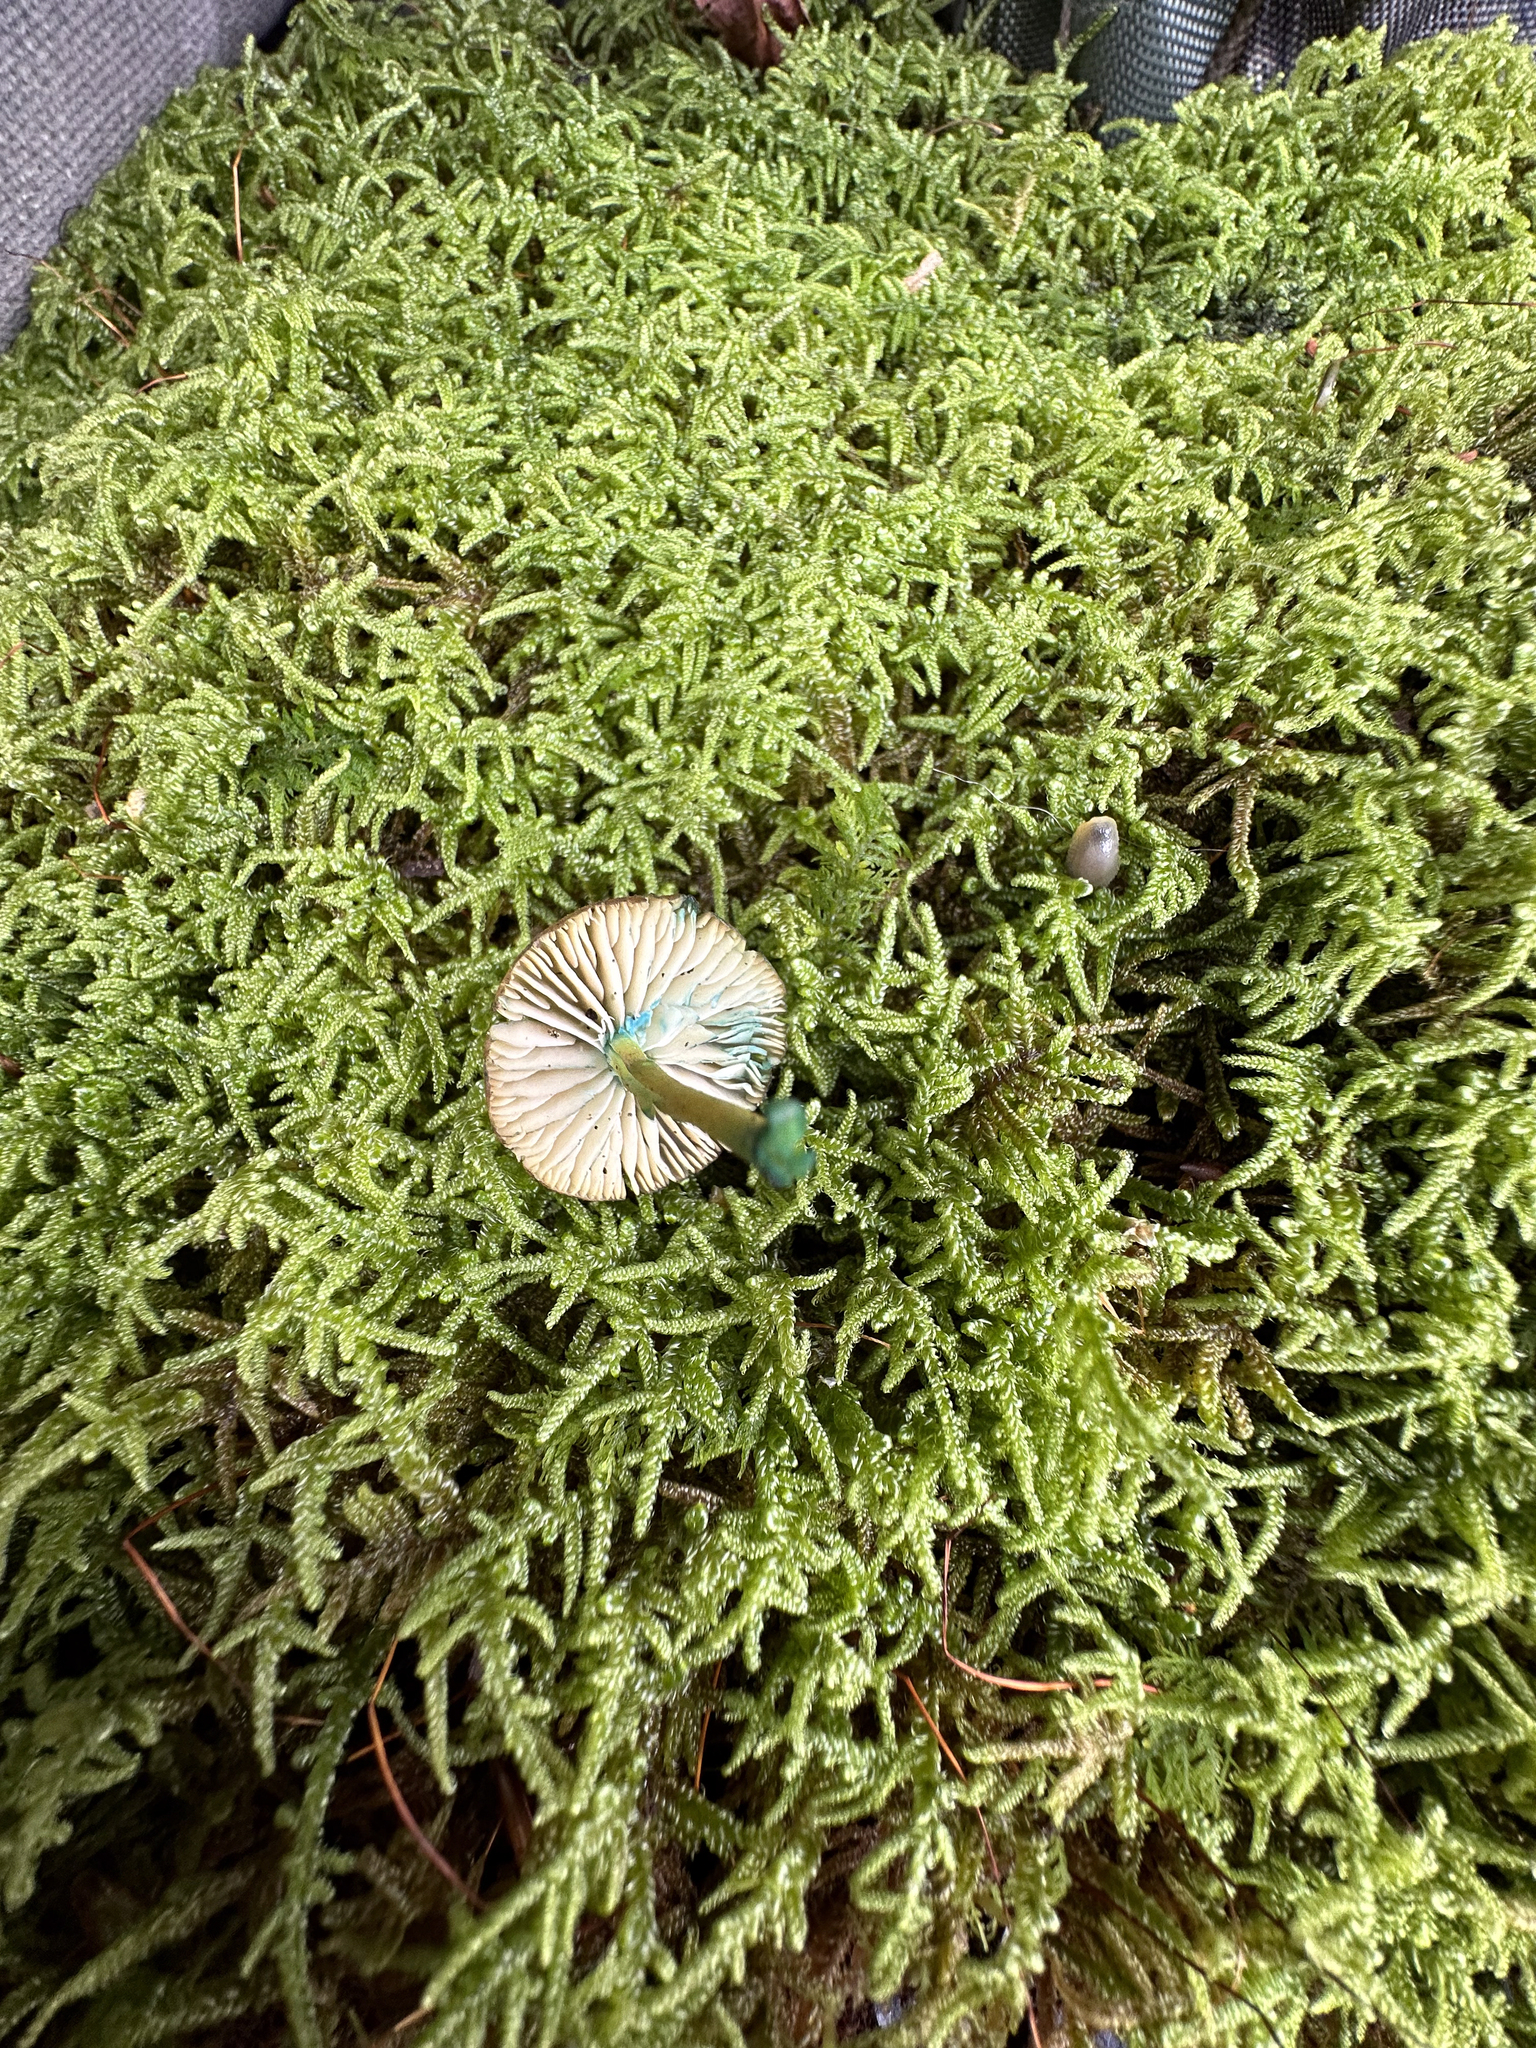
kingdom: Fungi
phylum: Basidiomycota
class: Agaricomycetes
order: Agaricales
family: Entolomataceae
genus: Entoloma
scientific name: Entoloma incanum
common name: Mousepee pinkgill
